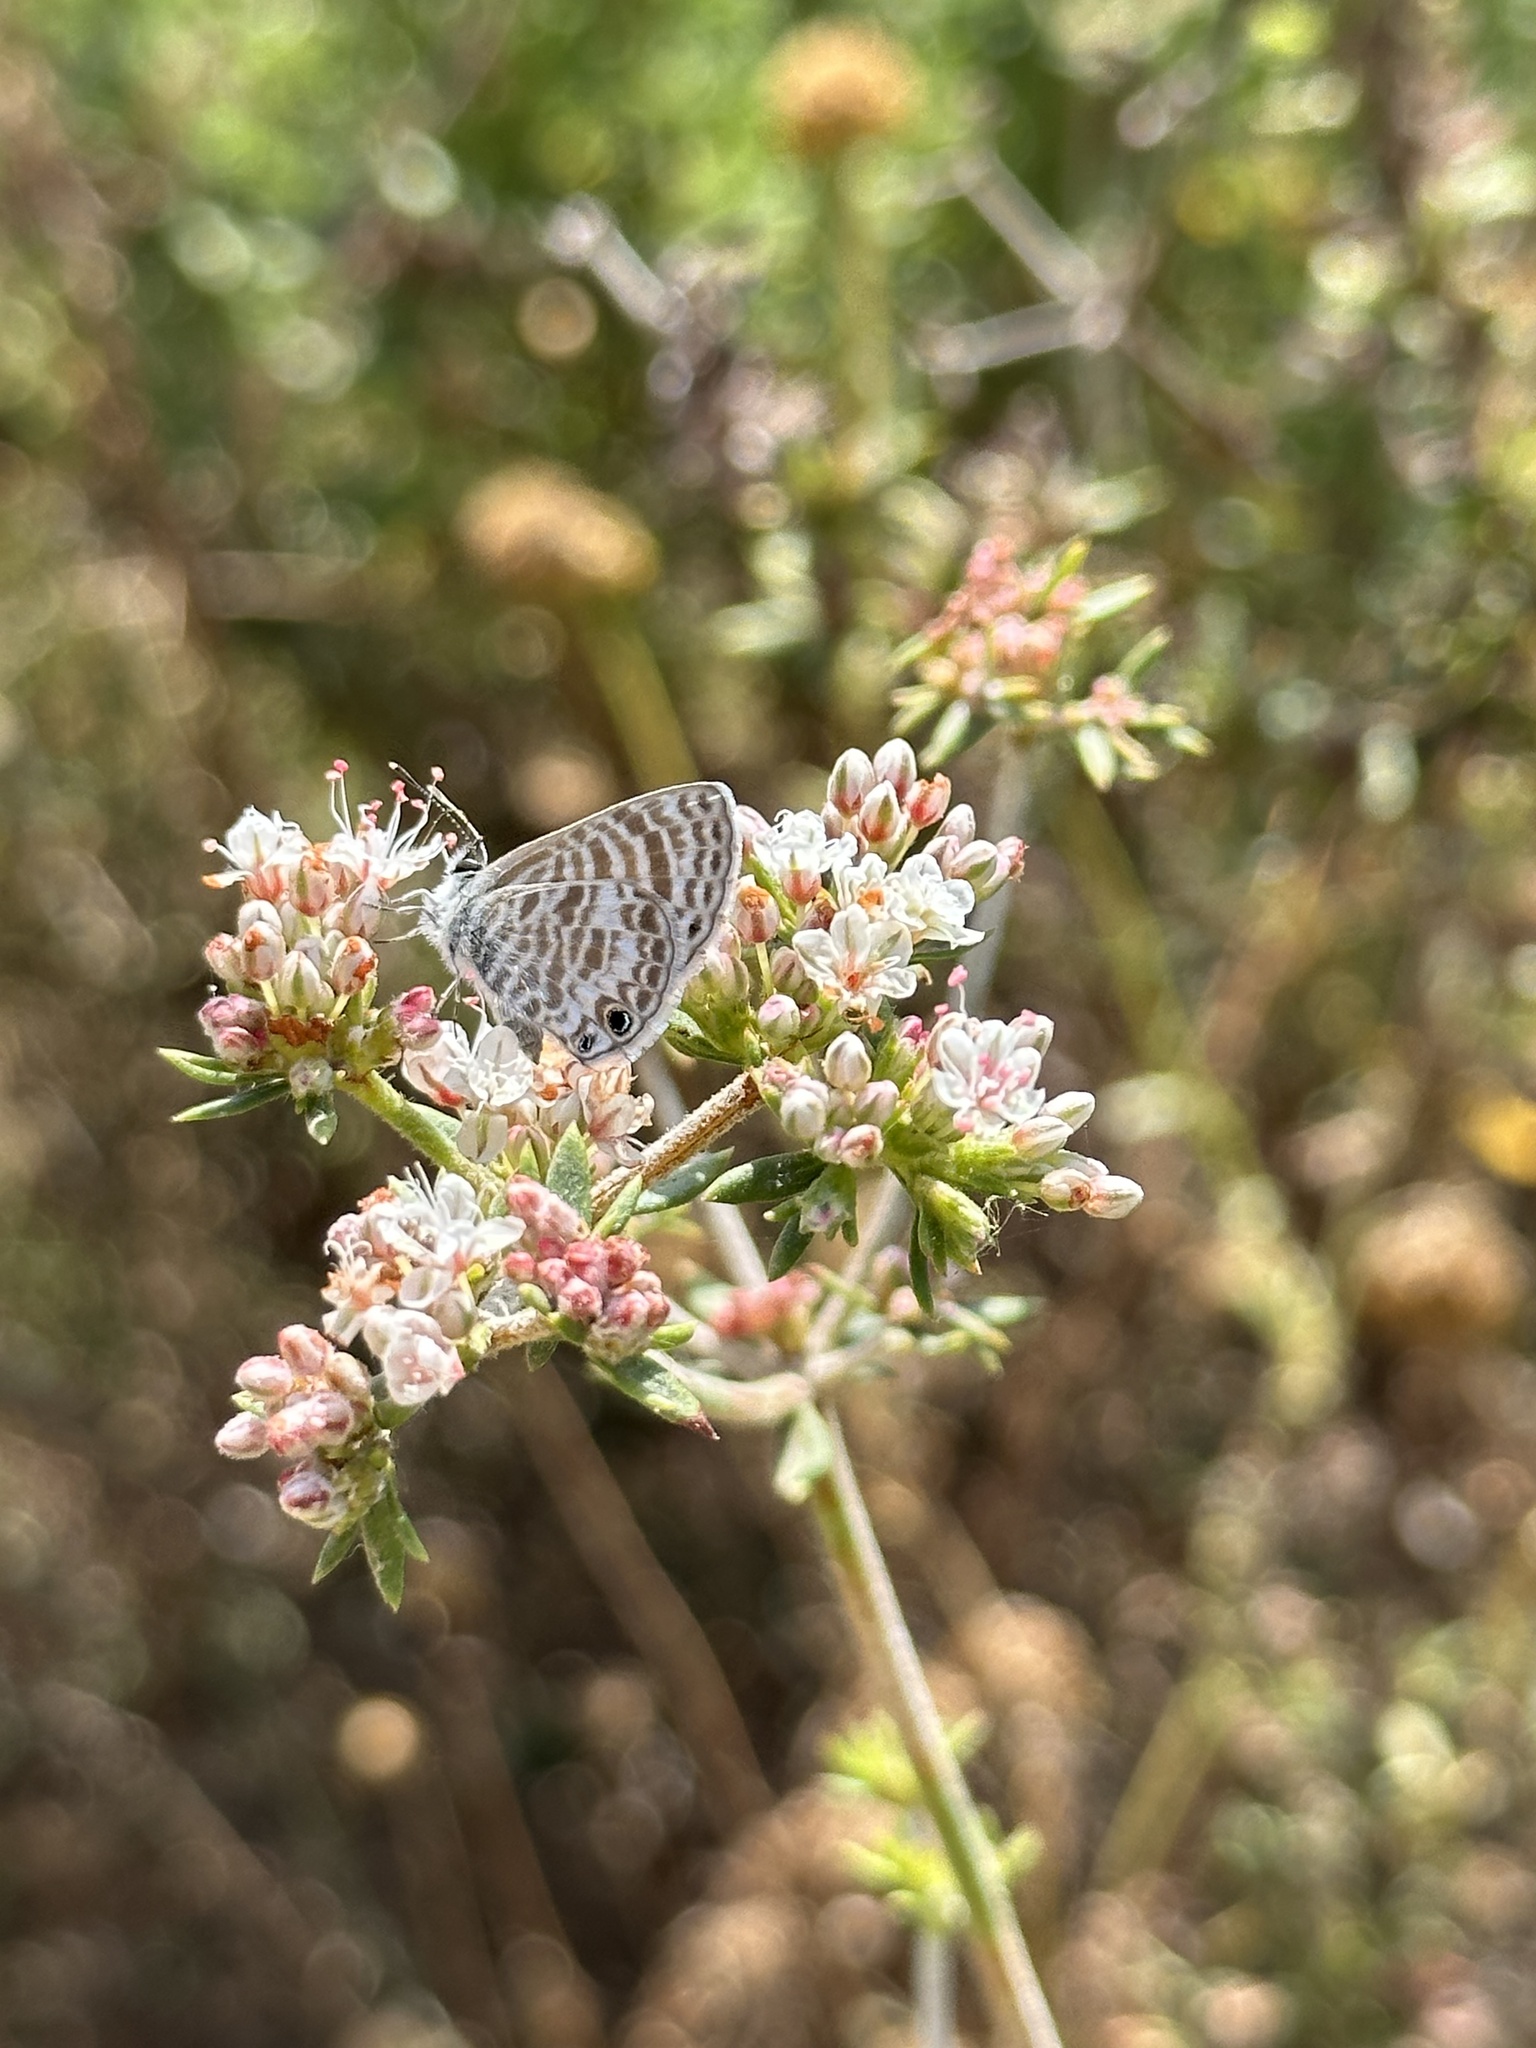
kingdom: Animalia
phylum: Arthropoda
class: Insecta
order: Lepidoptera
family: Lycaenidae
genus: Leptotes
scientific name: Leptotes marina
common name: Marine blue
